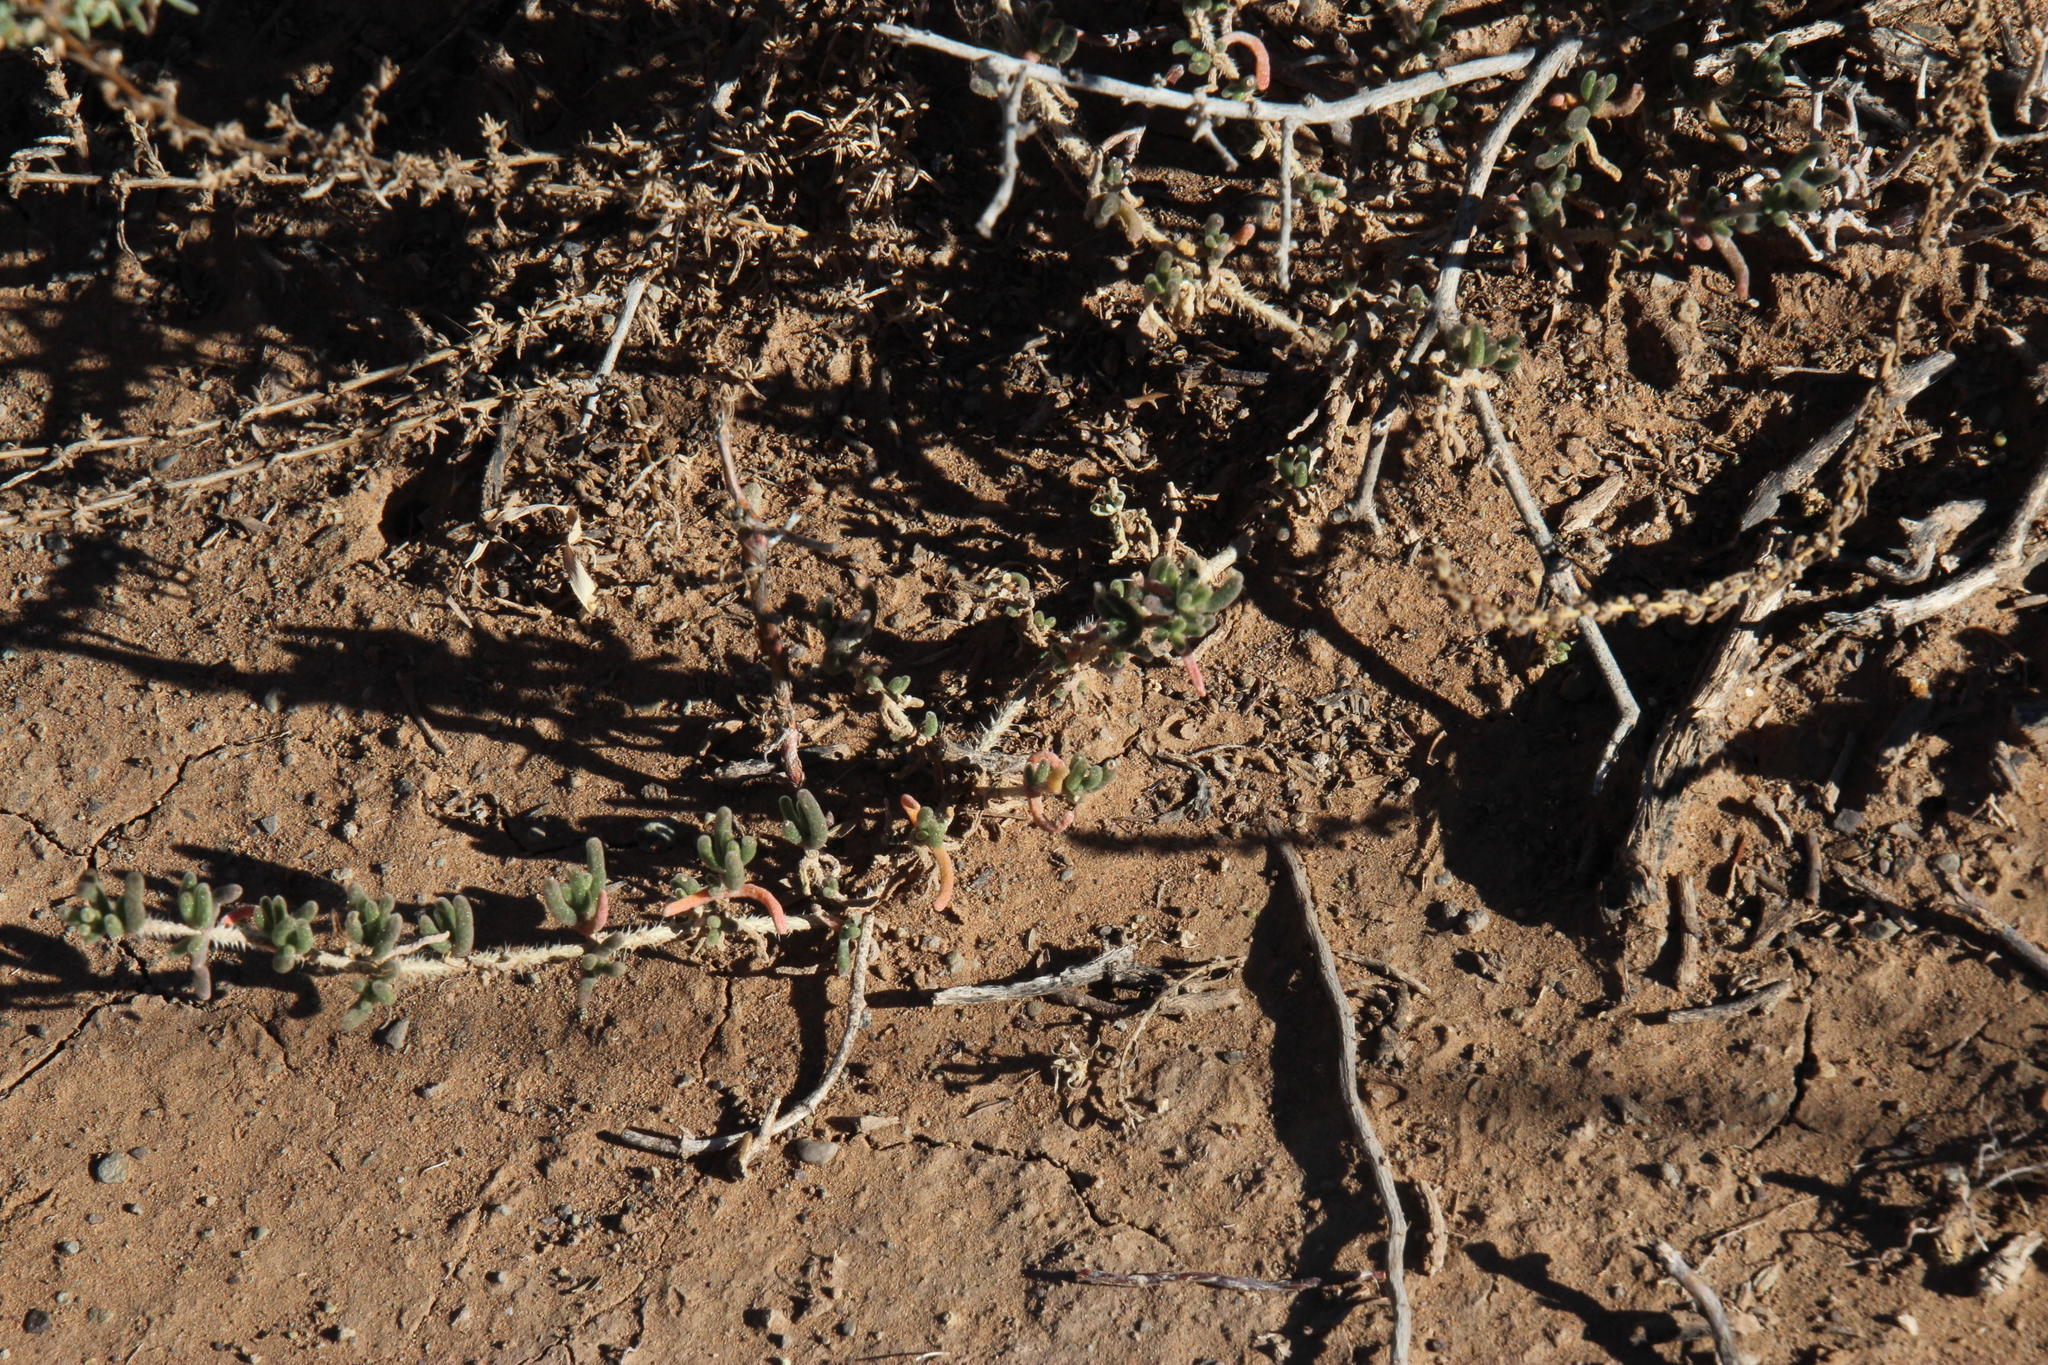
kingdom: Plantae
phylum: Tracheophyta
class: Magnoliopsida
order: Caryophyllales
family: Aizoaceae
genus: Drosanthemum
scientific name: Drosanthemum hispidum
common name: Hairy dewflower
